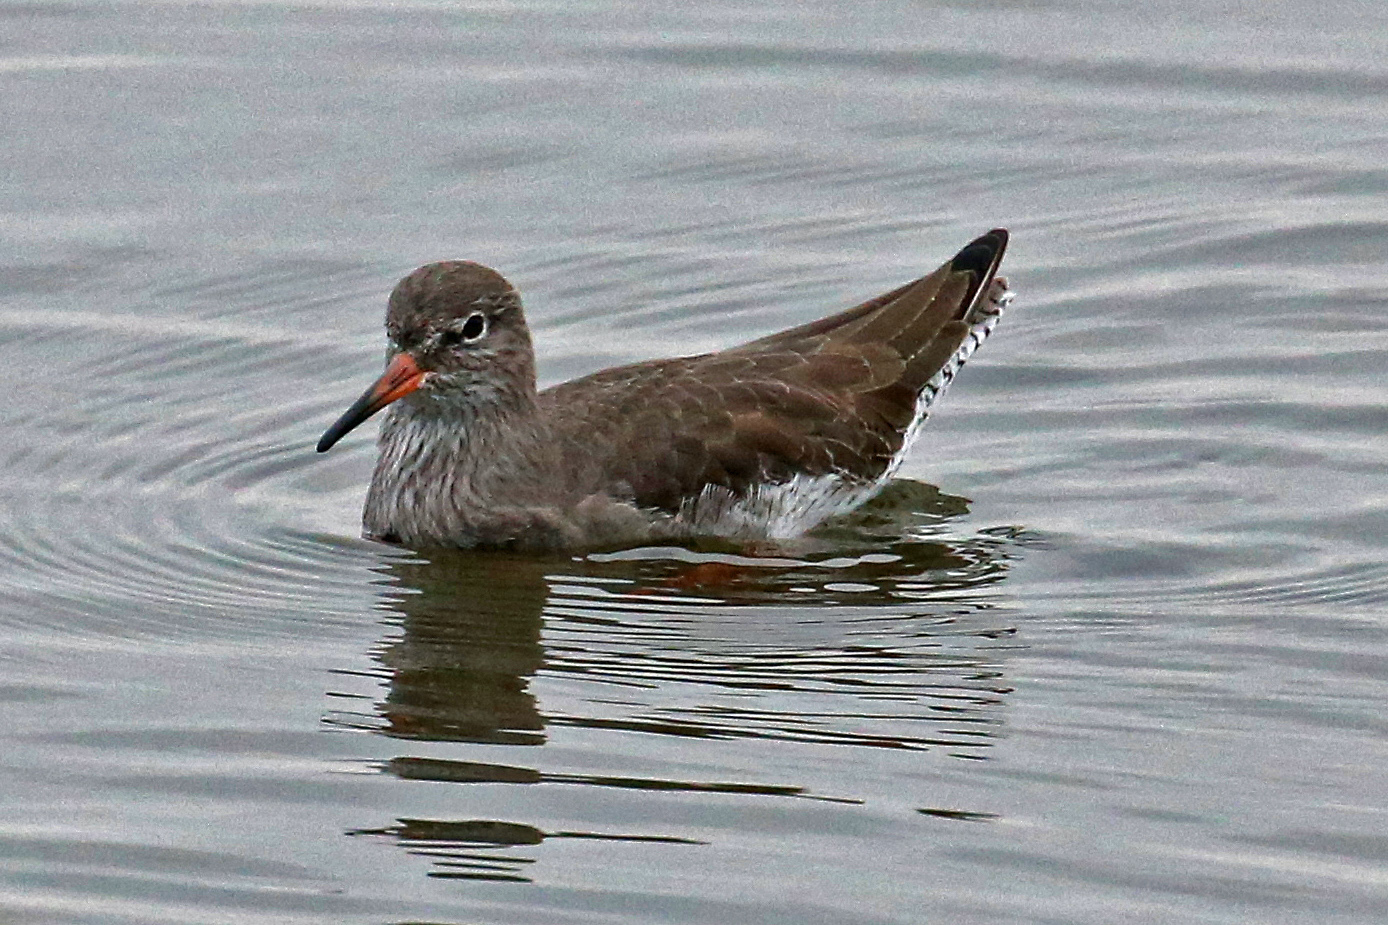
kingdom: Animalia
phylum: Chordata
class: Aves
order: Charadriiformes
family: Scolopacidae
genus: Tringa
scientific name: Tringa totanus
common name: Common redshank
